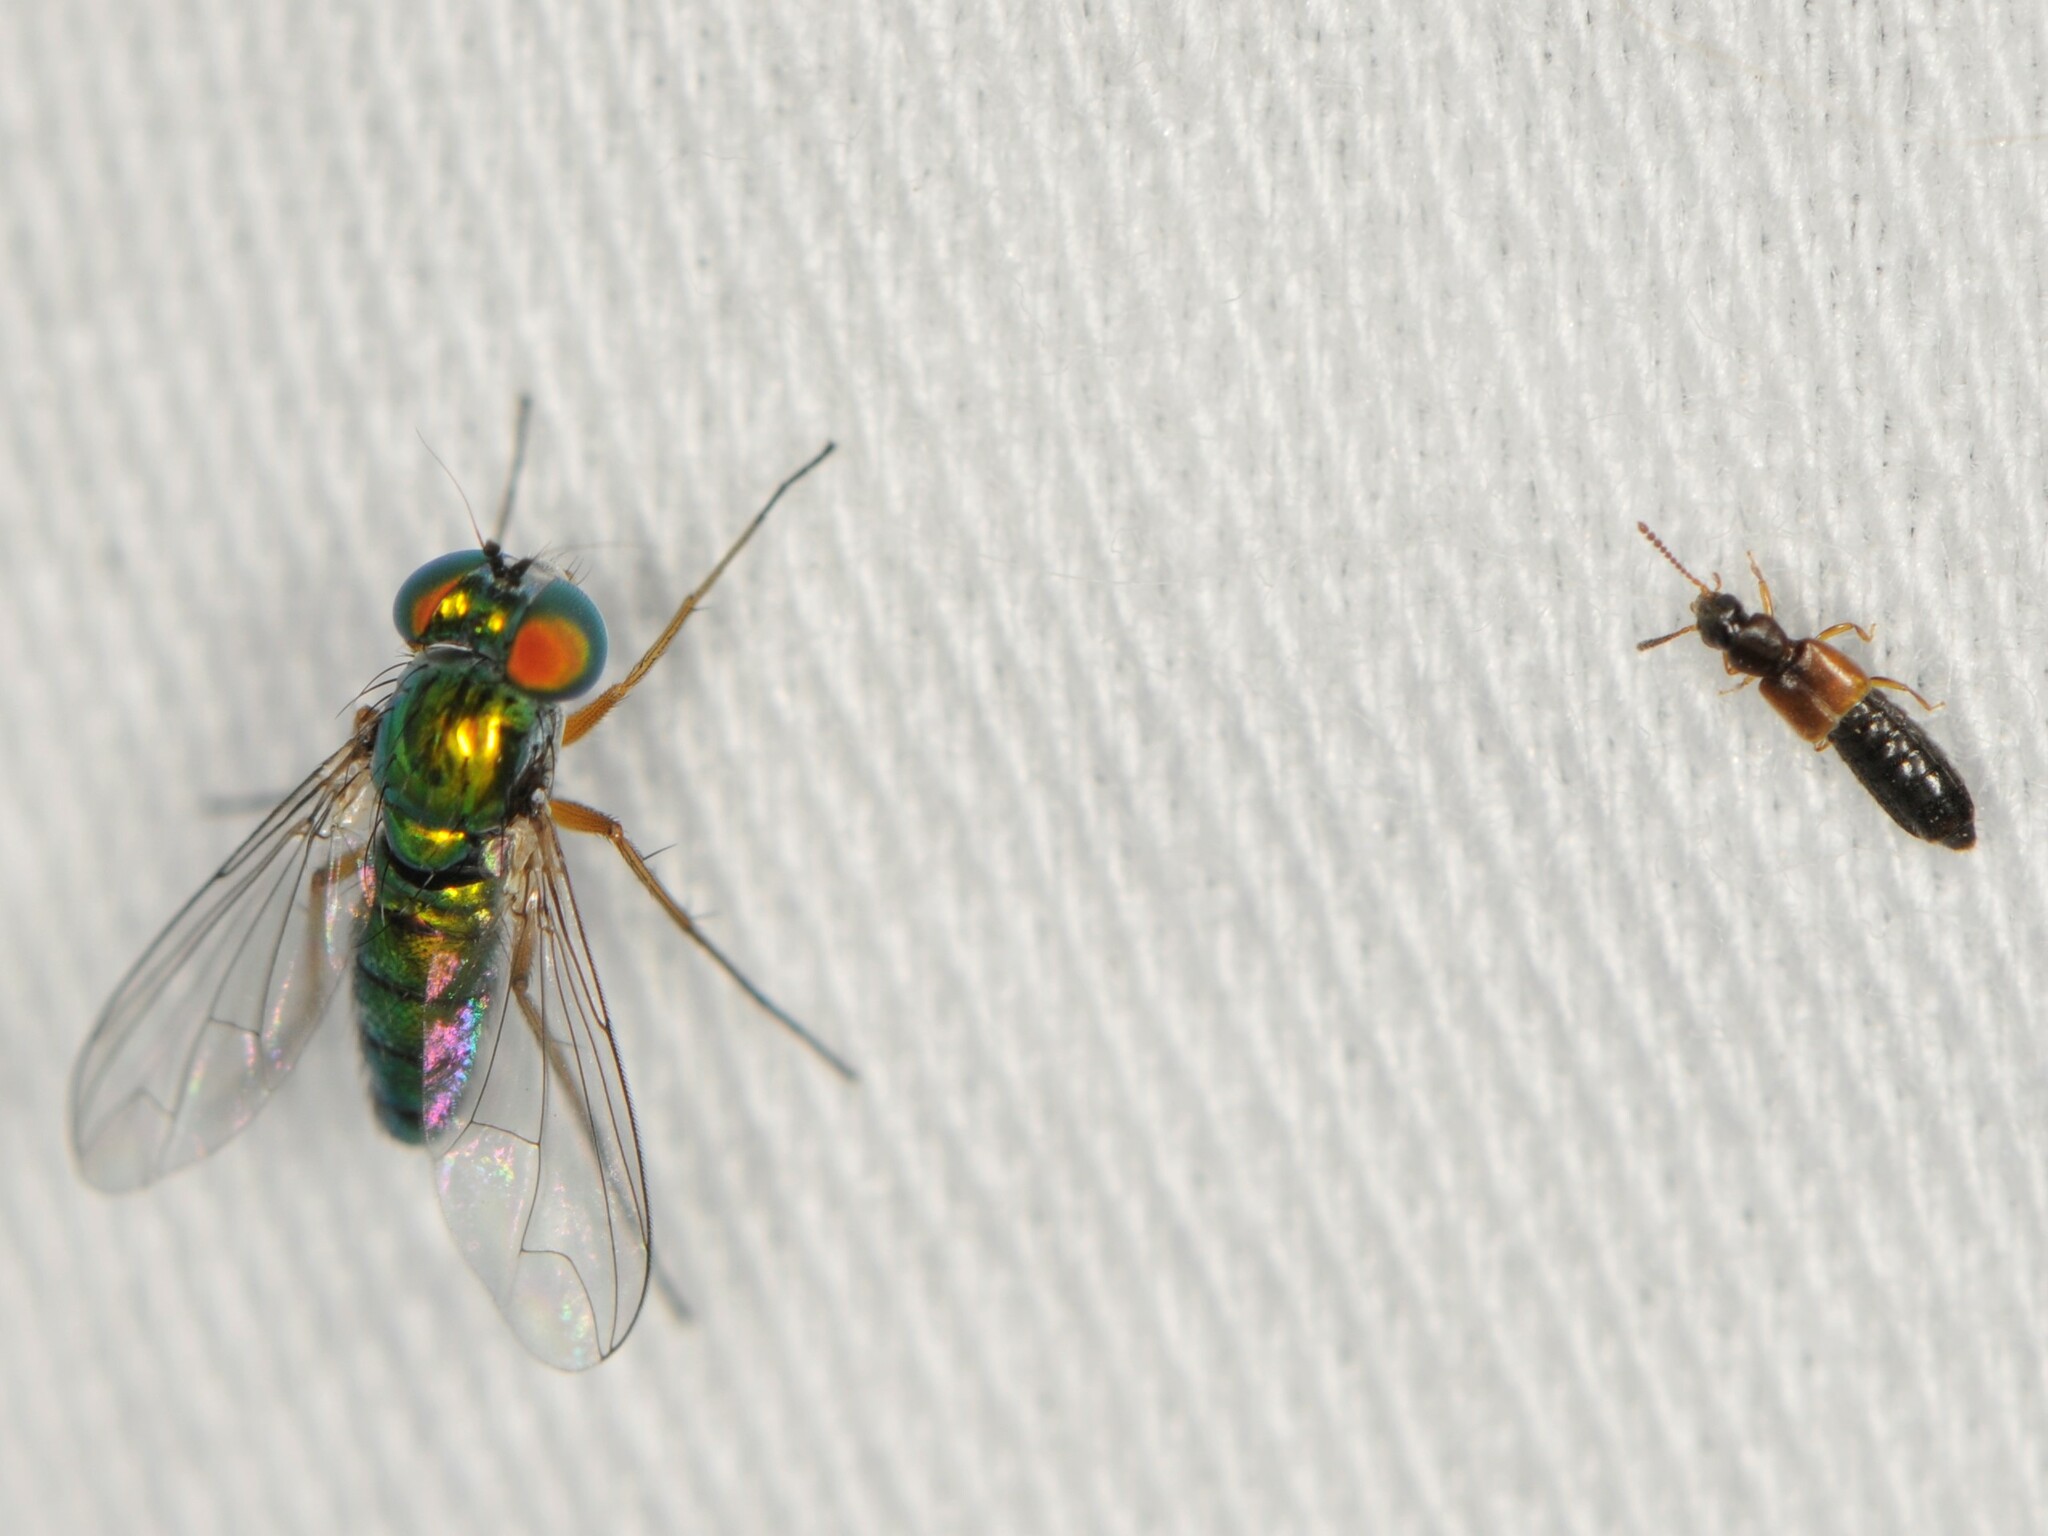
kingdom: Animalia
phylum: Arthropoda
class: Insecta
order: Diptera
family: Dolichopodidae
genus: Condylostylus
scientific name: Condylostylus
